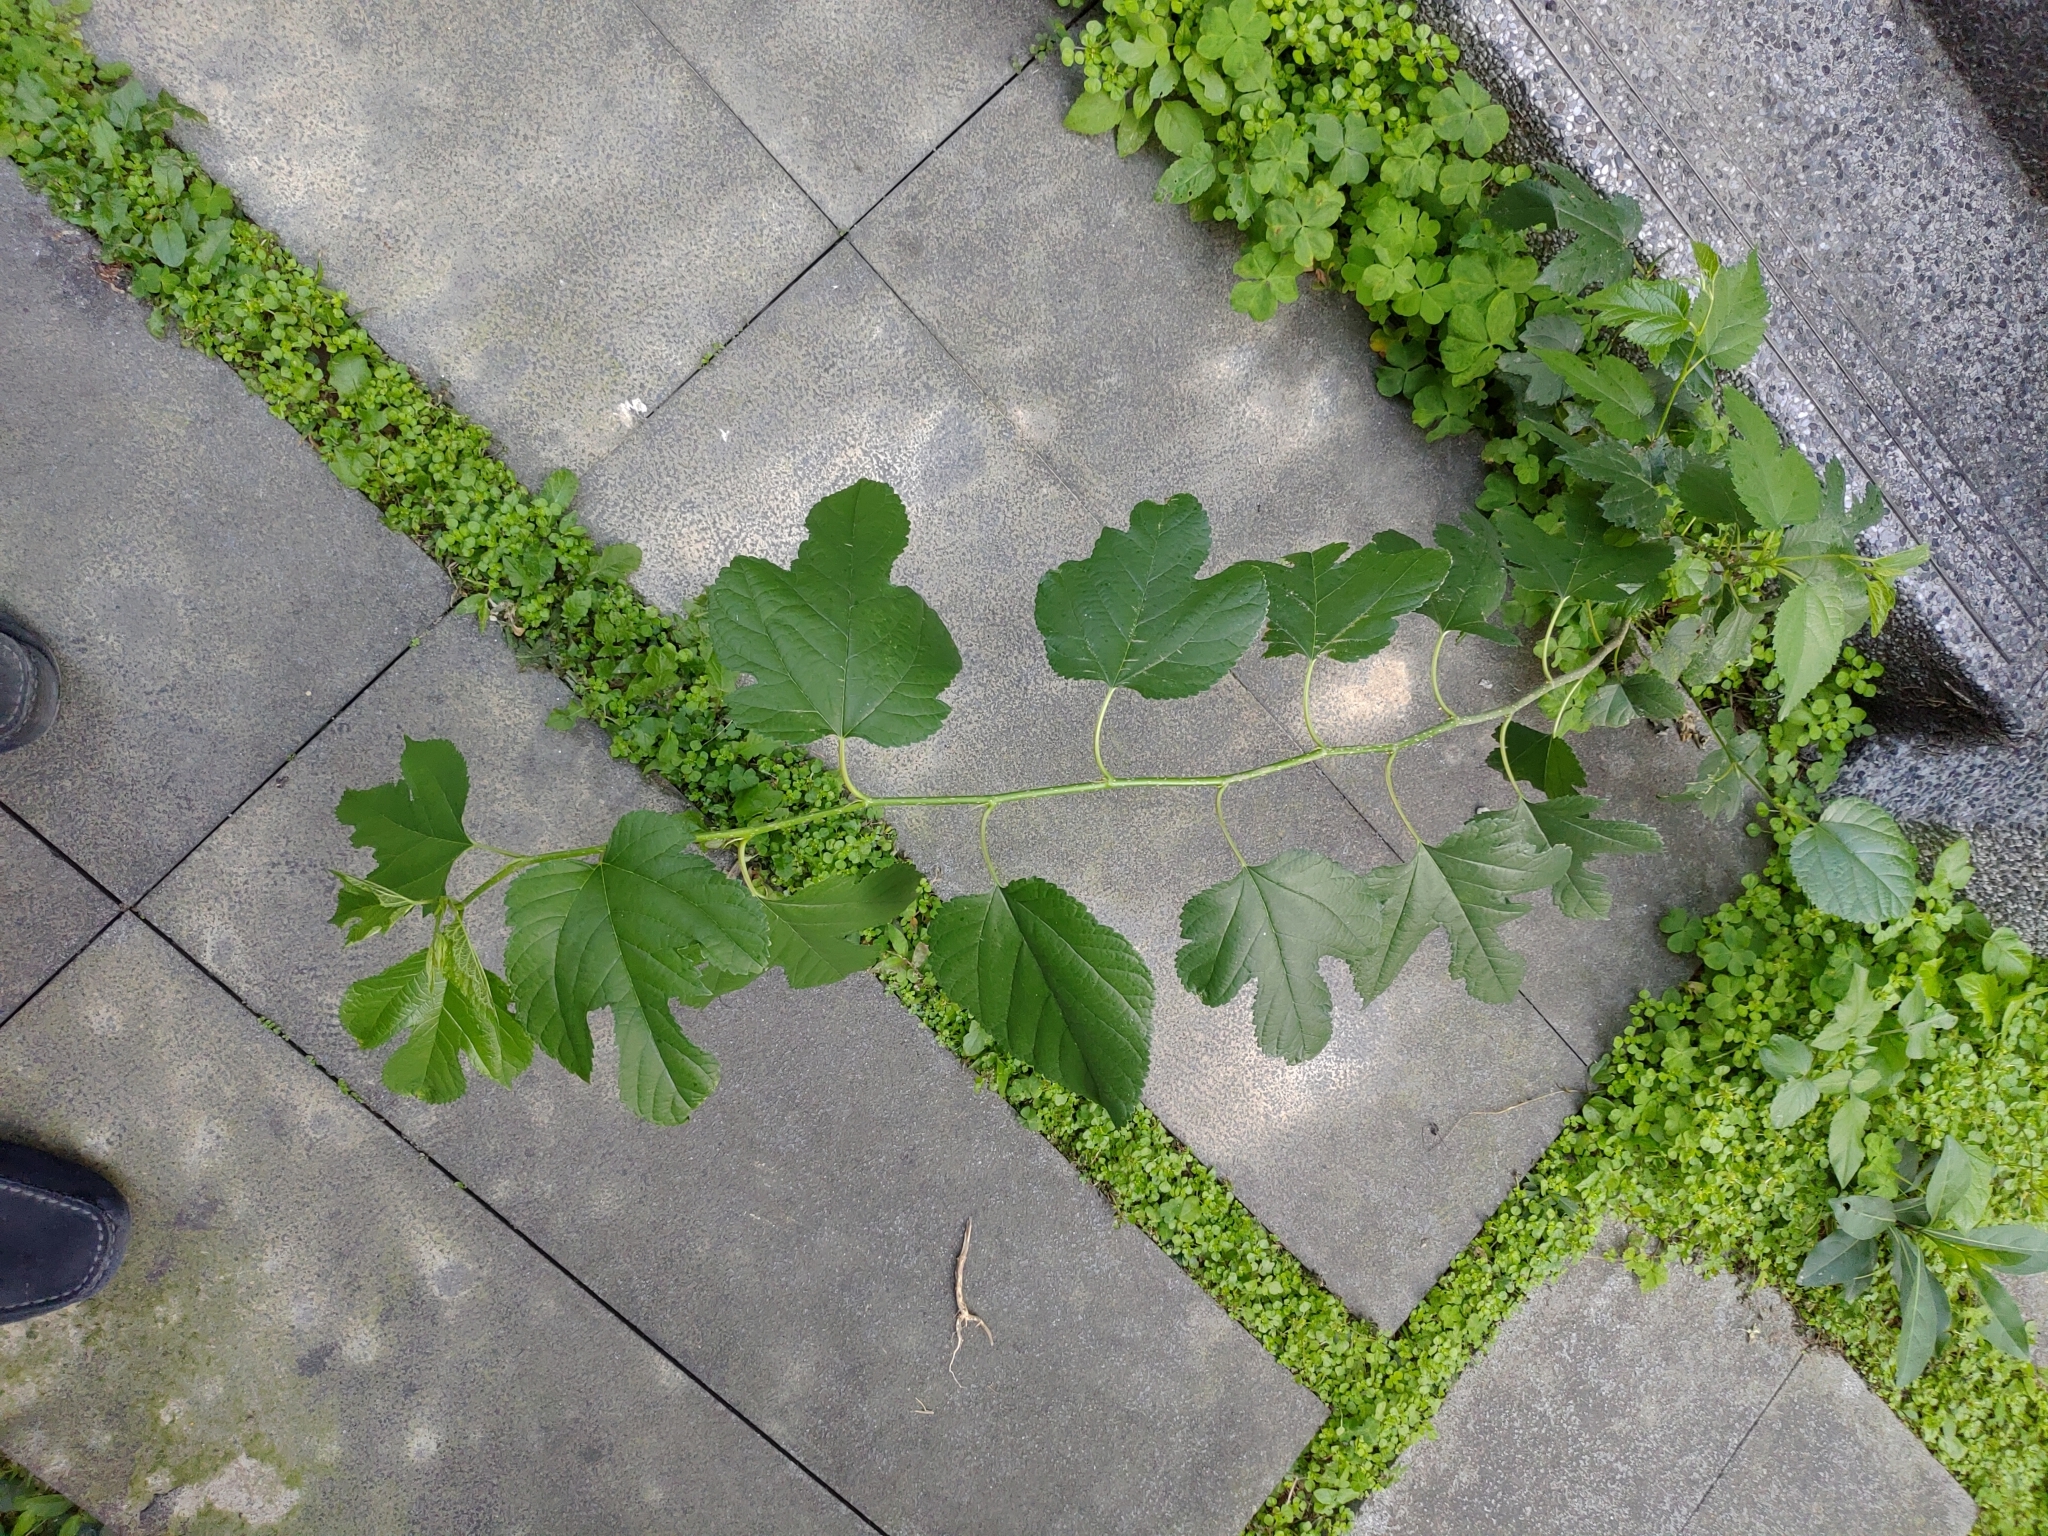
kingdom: Plantae
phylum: Tracheophyta
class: Magnoliopsida
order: Rosales
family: Moraceae
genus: Morus
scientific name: Morus indica
